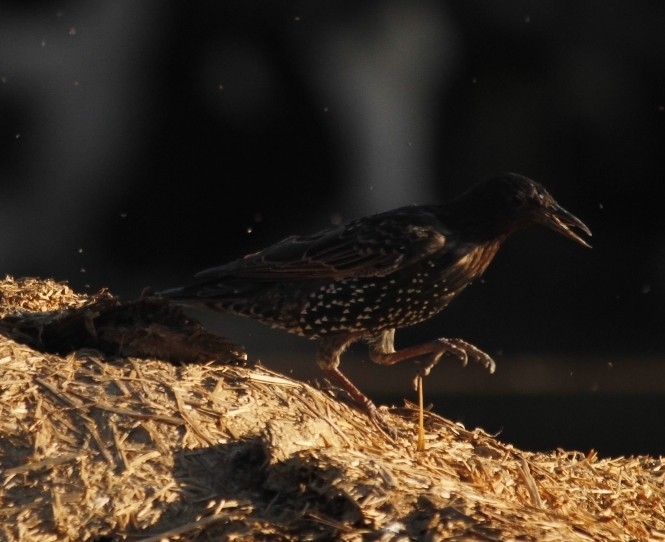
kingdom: Animalia
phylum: Chordata
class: Aves
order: Passeriformes
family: Sturnidae
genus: Sturnus
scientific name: Sturnus vulgaris
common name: Common starling
